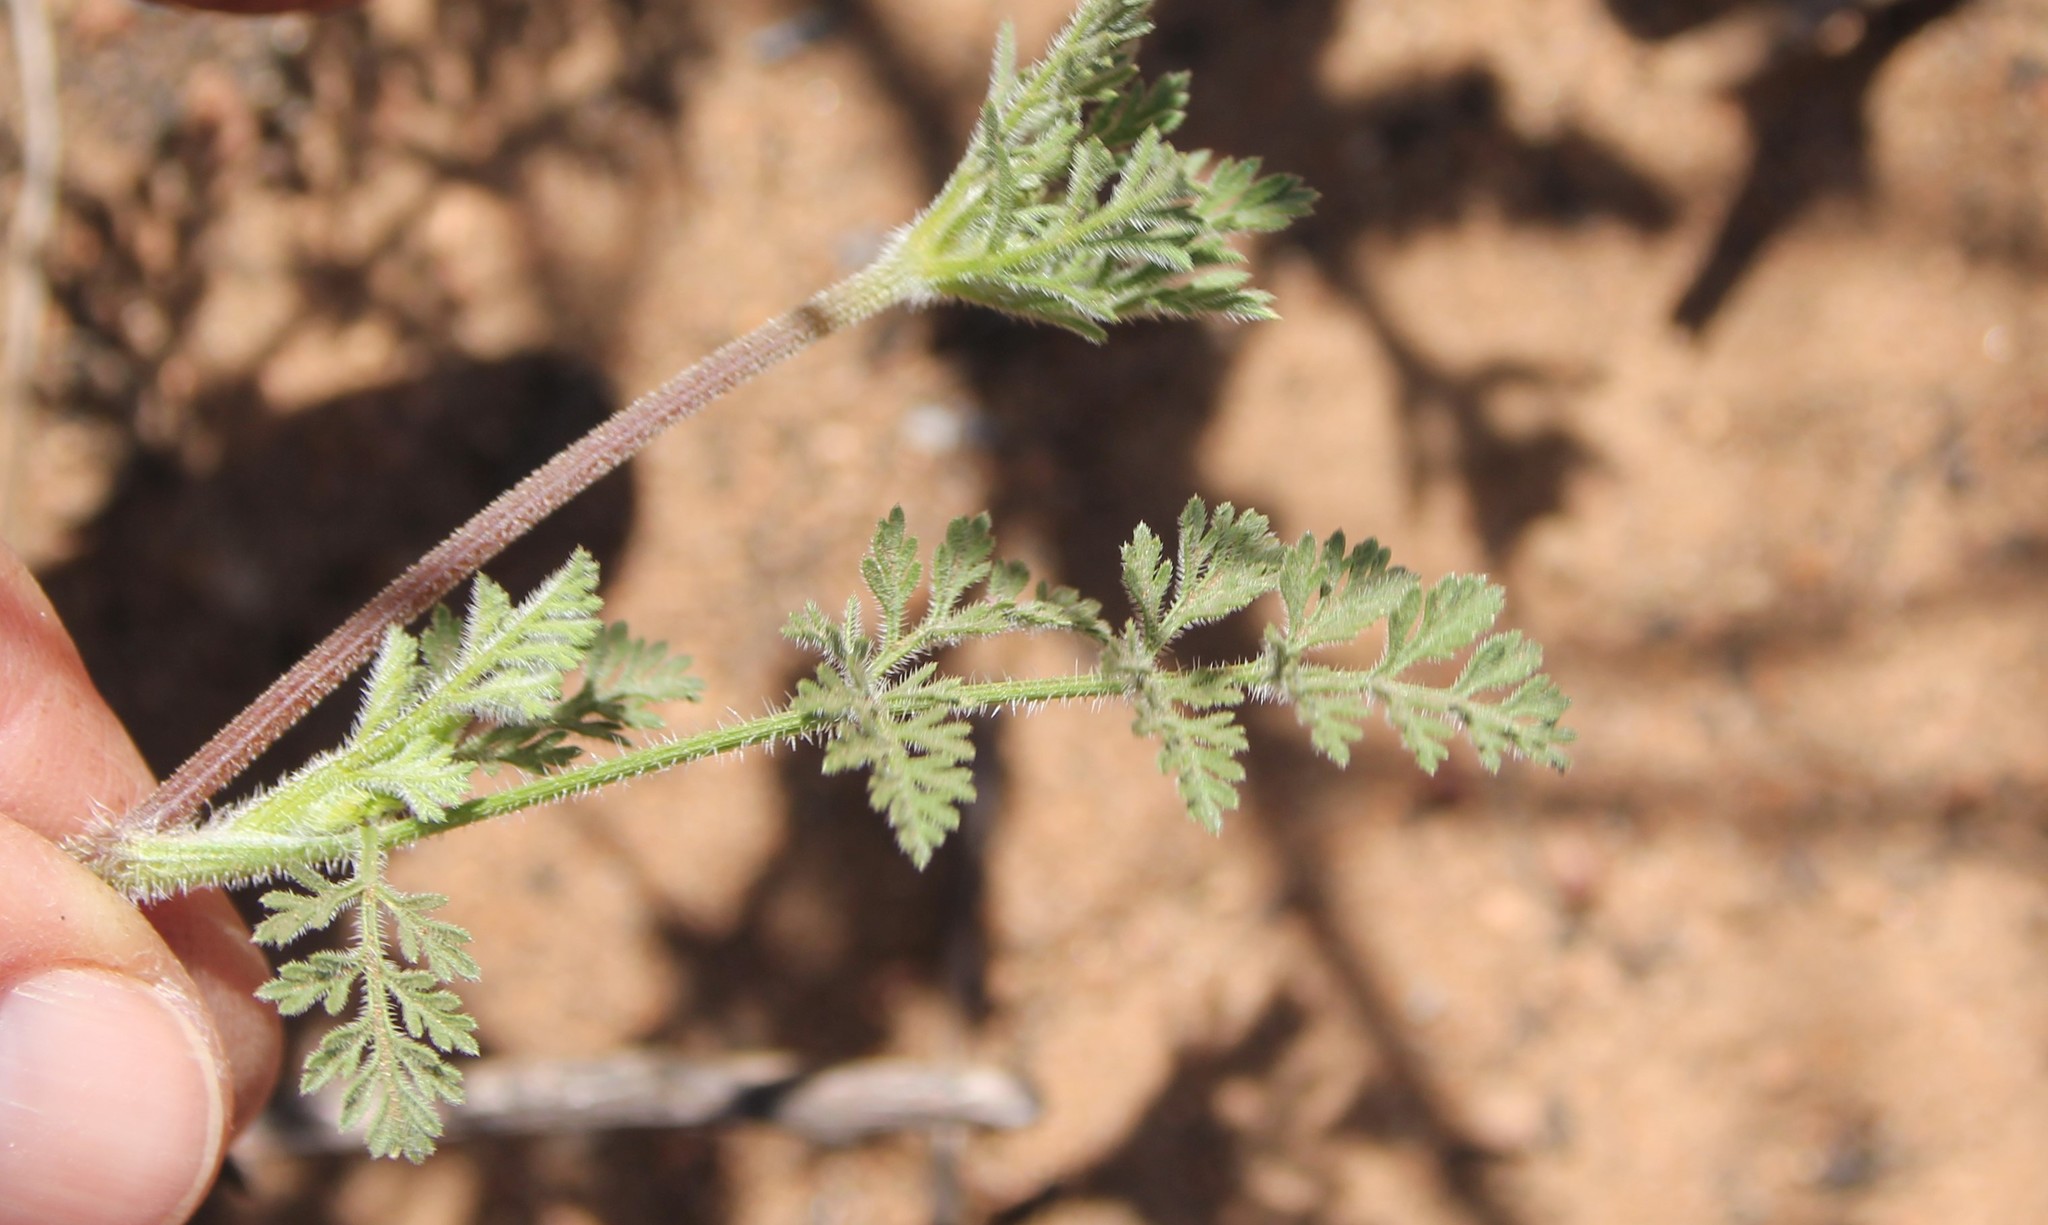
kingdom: Plantae
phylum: Tracheophyta
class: Magnoliopsida
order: Apiales
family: Apiaceae
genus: Daucus
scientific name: Daucus pusillus
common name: Southwest wild carrot
